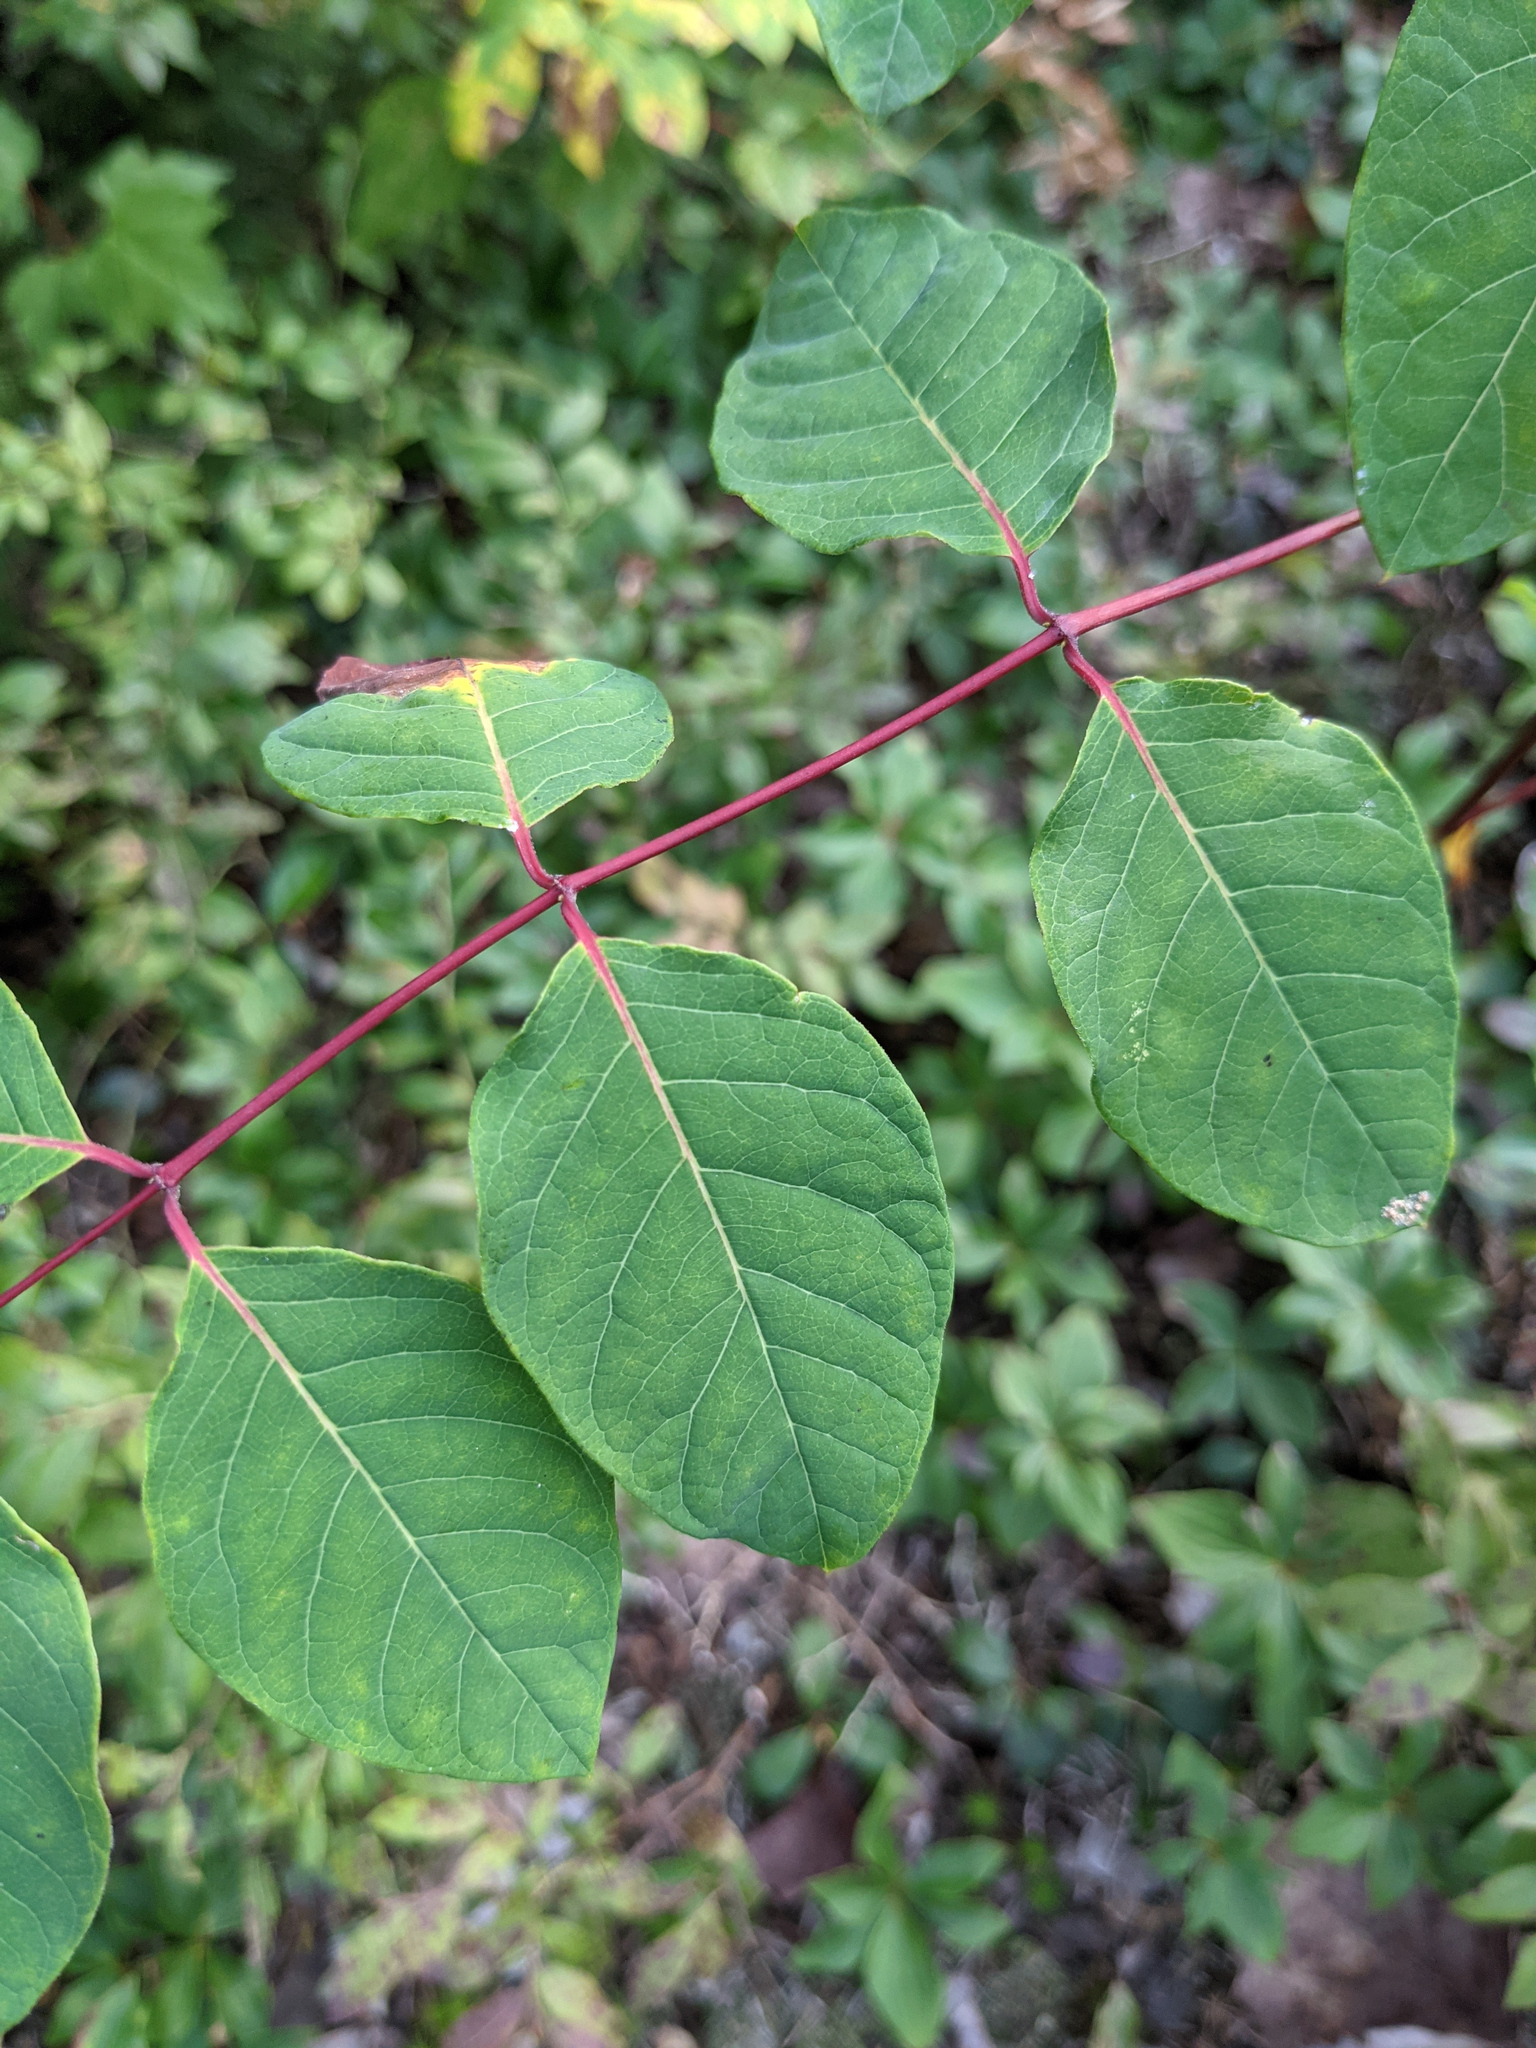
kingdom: Plantae
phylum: Tracheophyta
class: Magnoliopsida
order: Gentianales
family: Apocynaceae
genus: Apocynum
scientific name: Apocynum androsaemifolium
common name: Spreading dogbane
